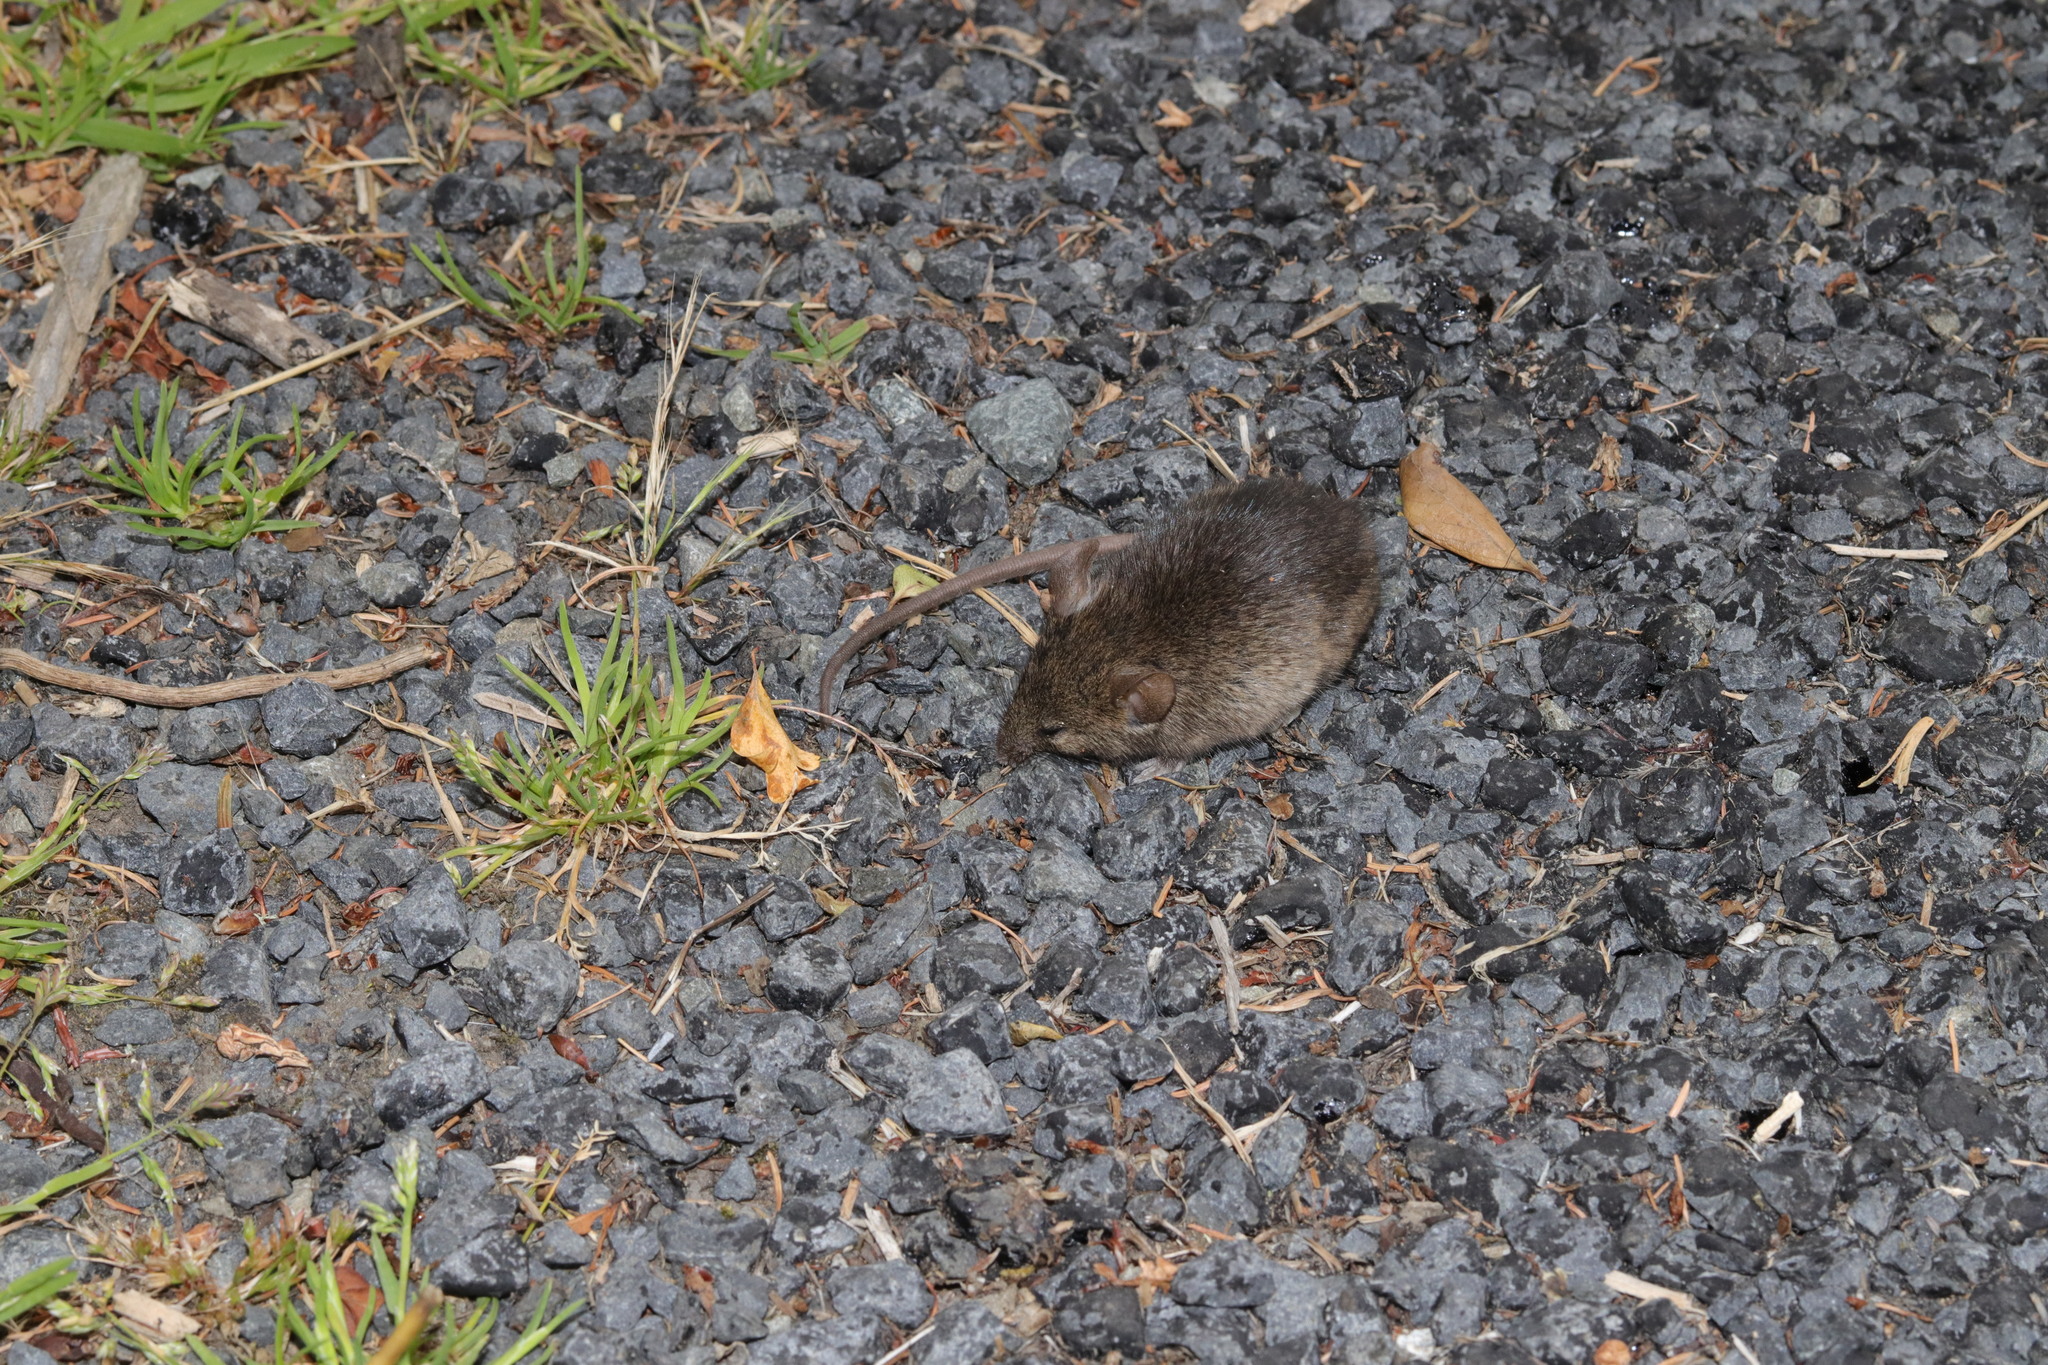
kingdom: Animalia
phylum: Chordata
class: Mammalia
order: Rodentia
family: Muridae
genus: Mus
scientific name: Mus musculus
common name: House mouse
